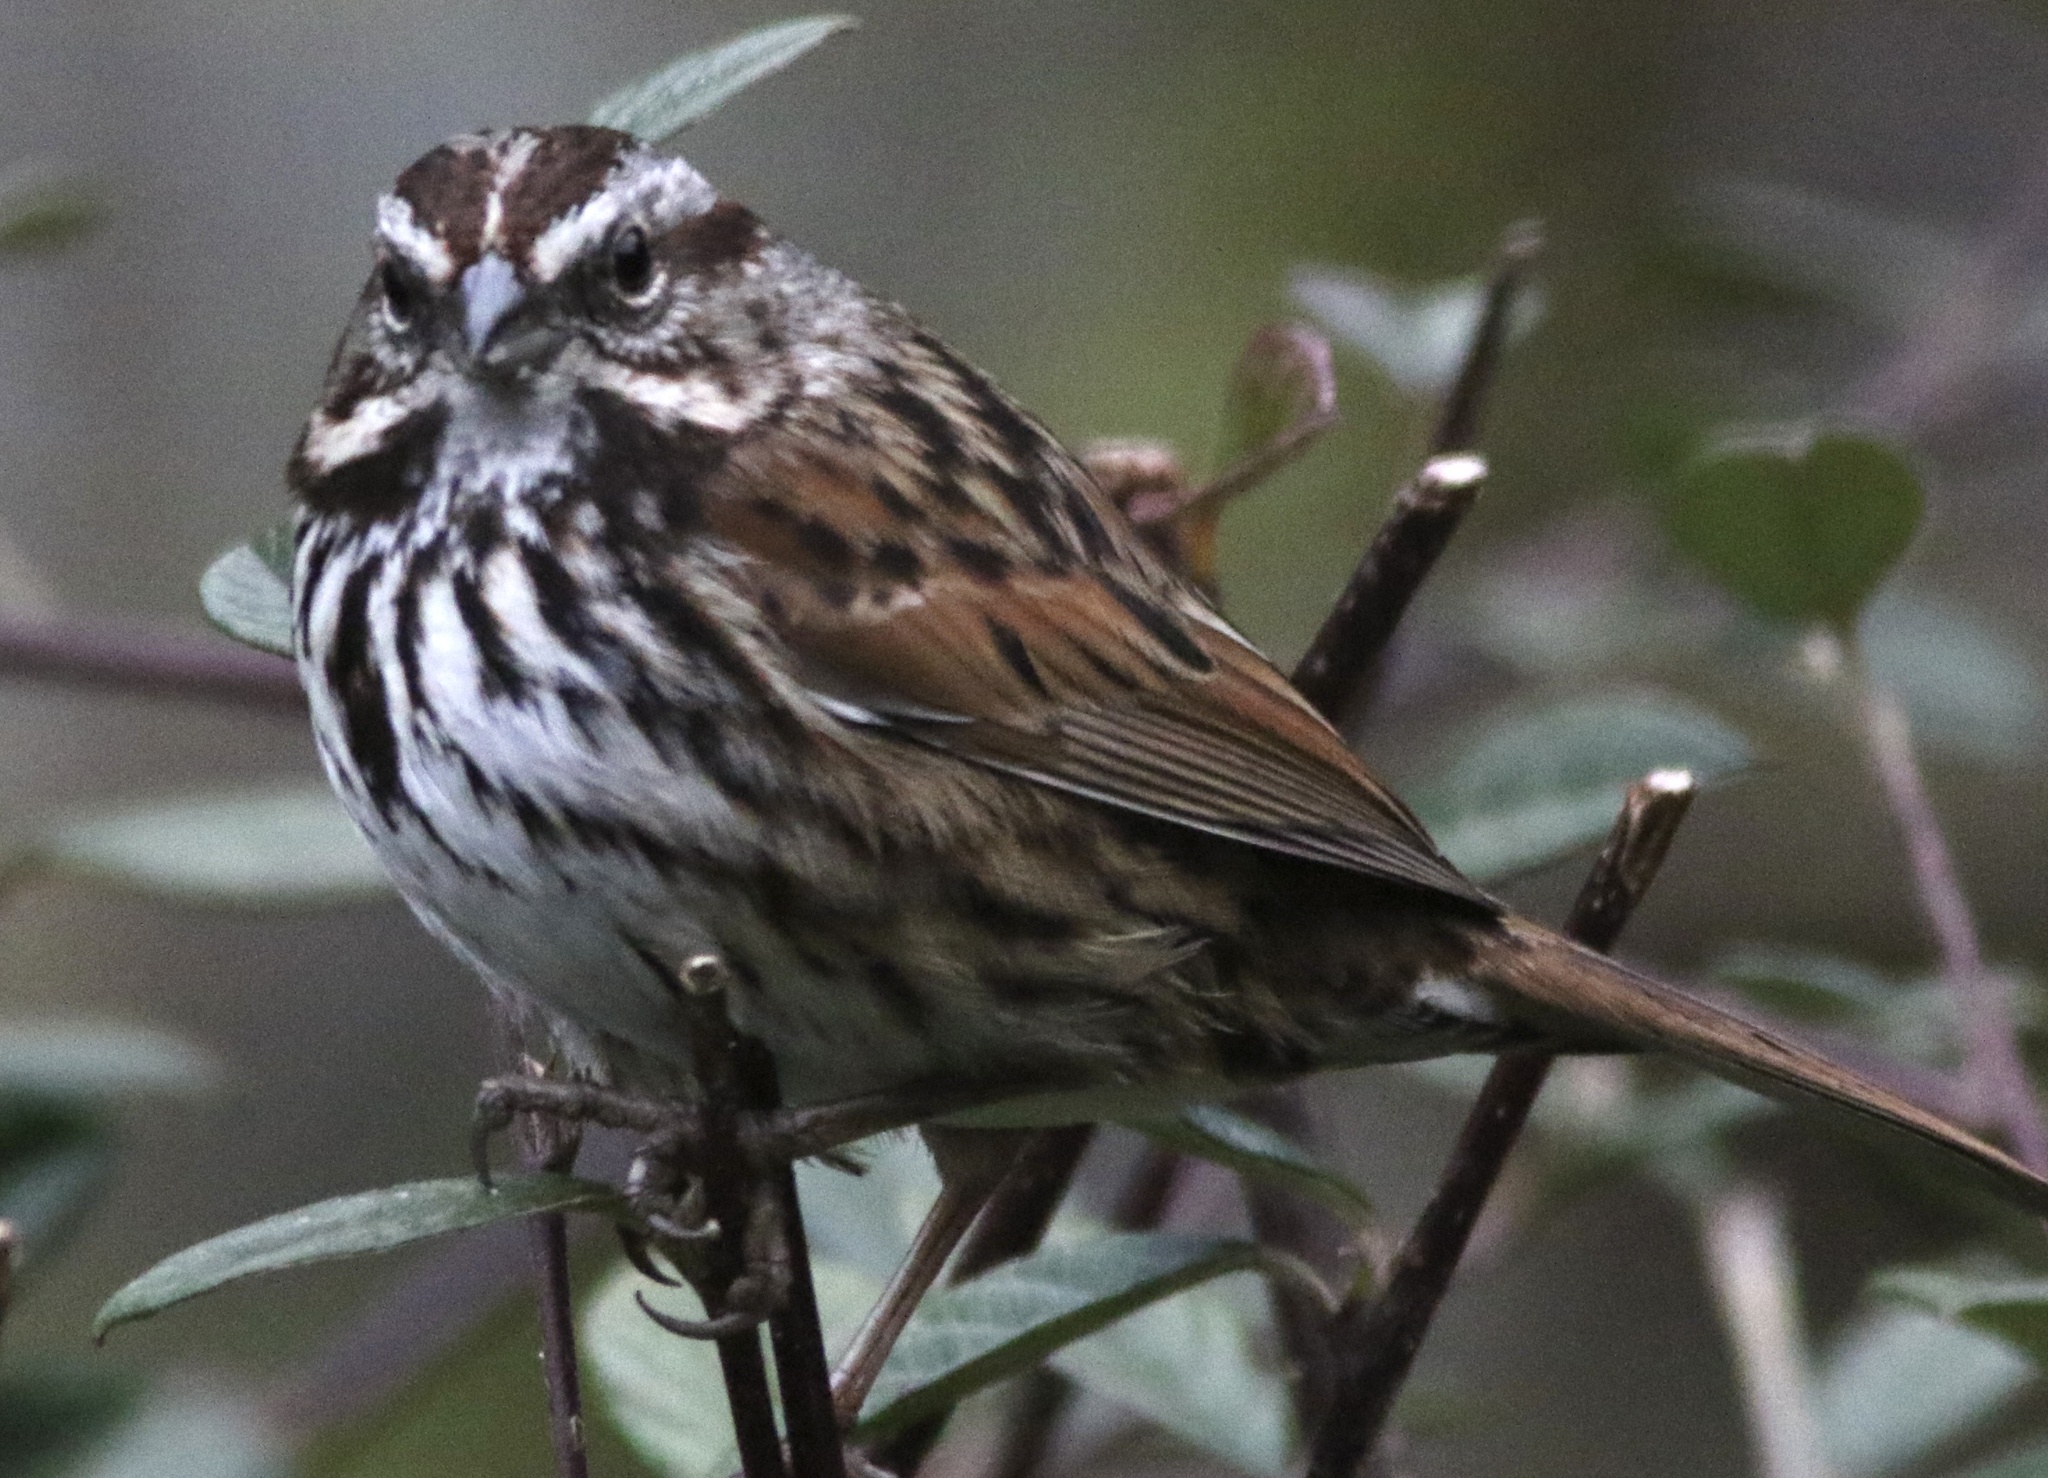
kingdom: Animalia
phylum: Chordata
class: Aves
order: Passeriformes
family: Passerellidae
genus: Melospiza
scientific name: Melospiza melodia
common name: Song sparrow
